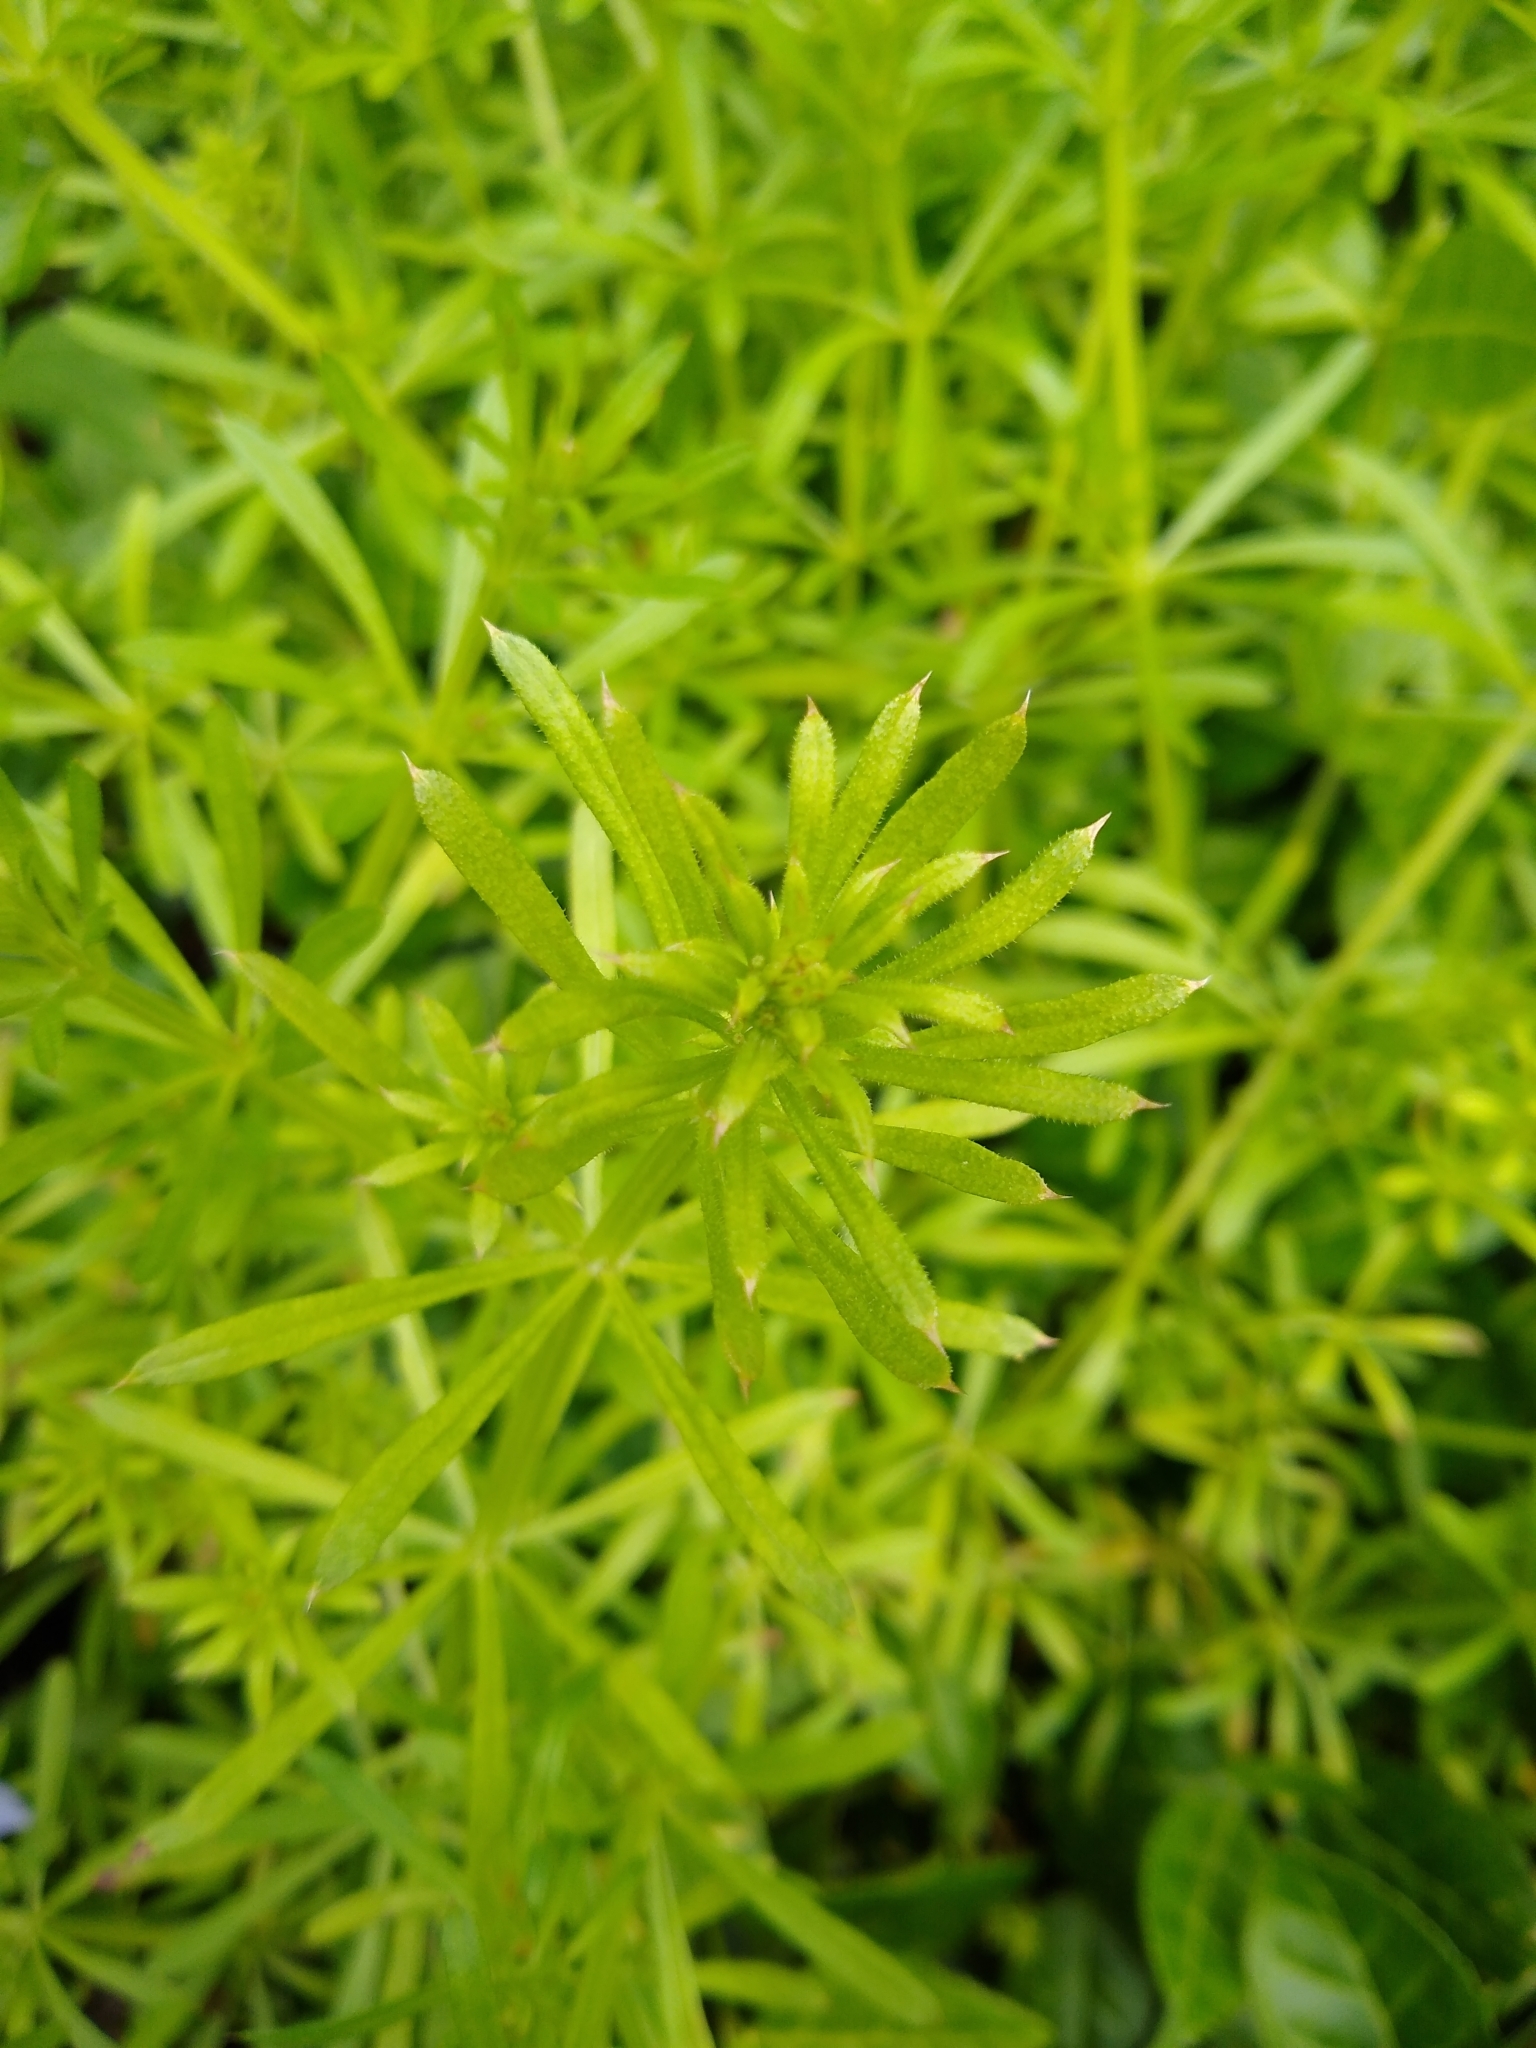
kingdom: Plantae
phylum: Tracheophyta
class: Magnoliopsida
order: Gentianales
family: Rubiaceae
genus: Galium
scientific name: Galium aparine
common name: Cleavers
